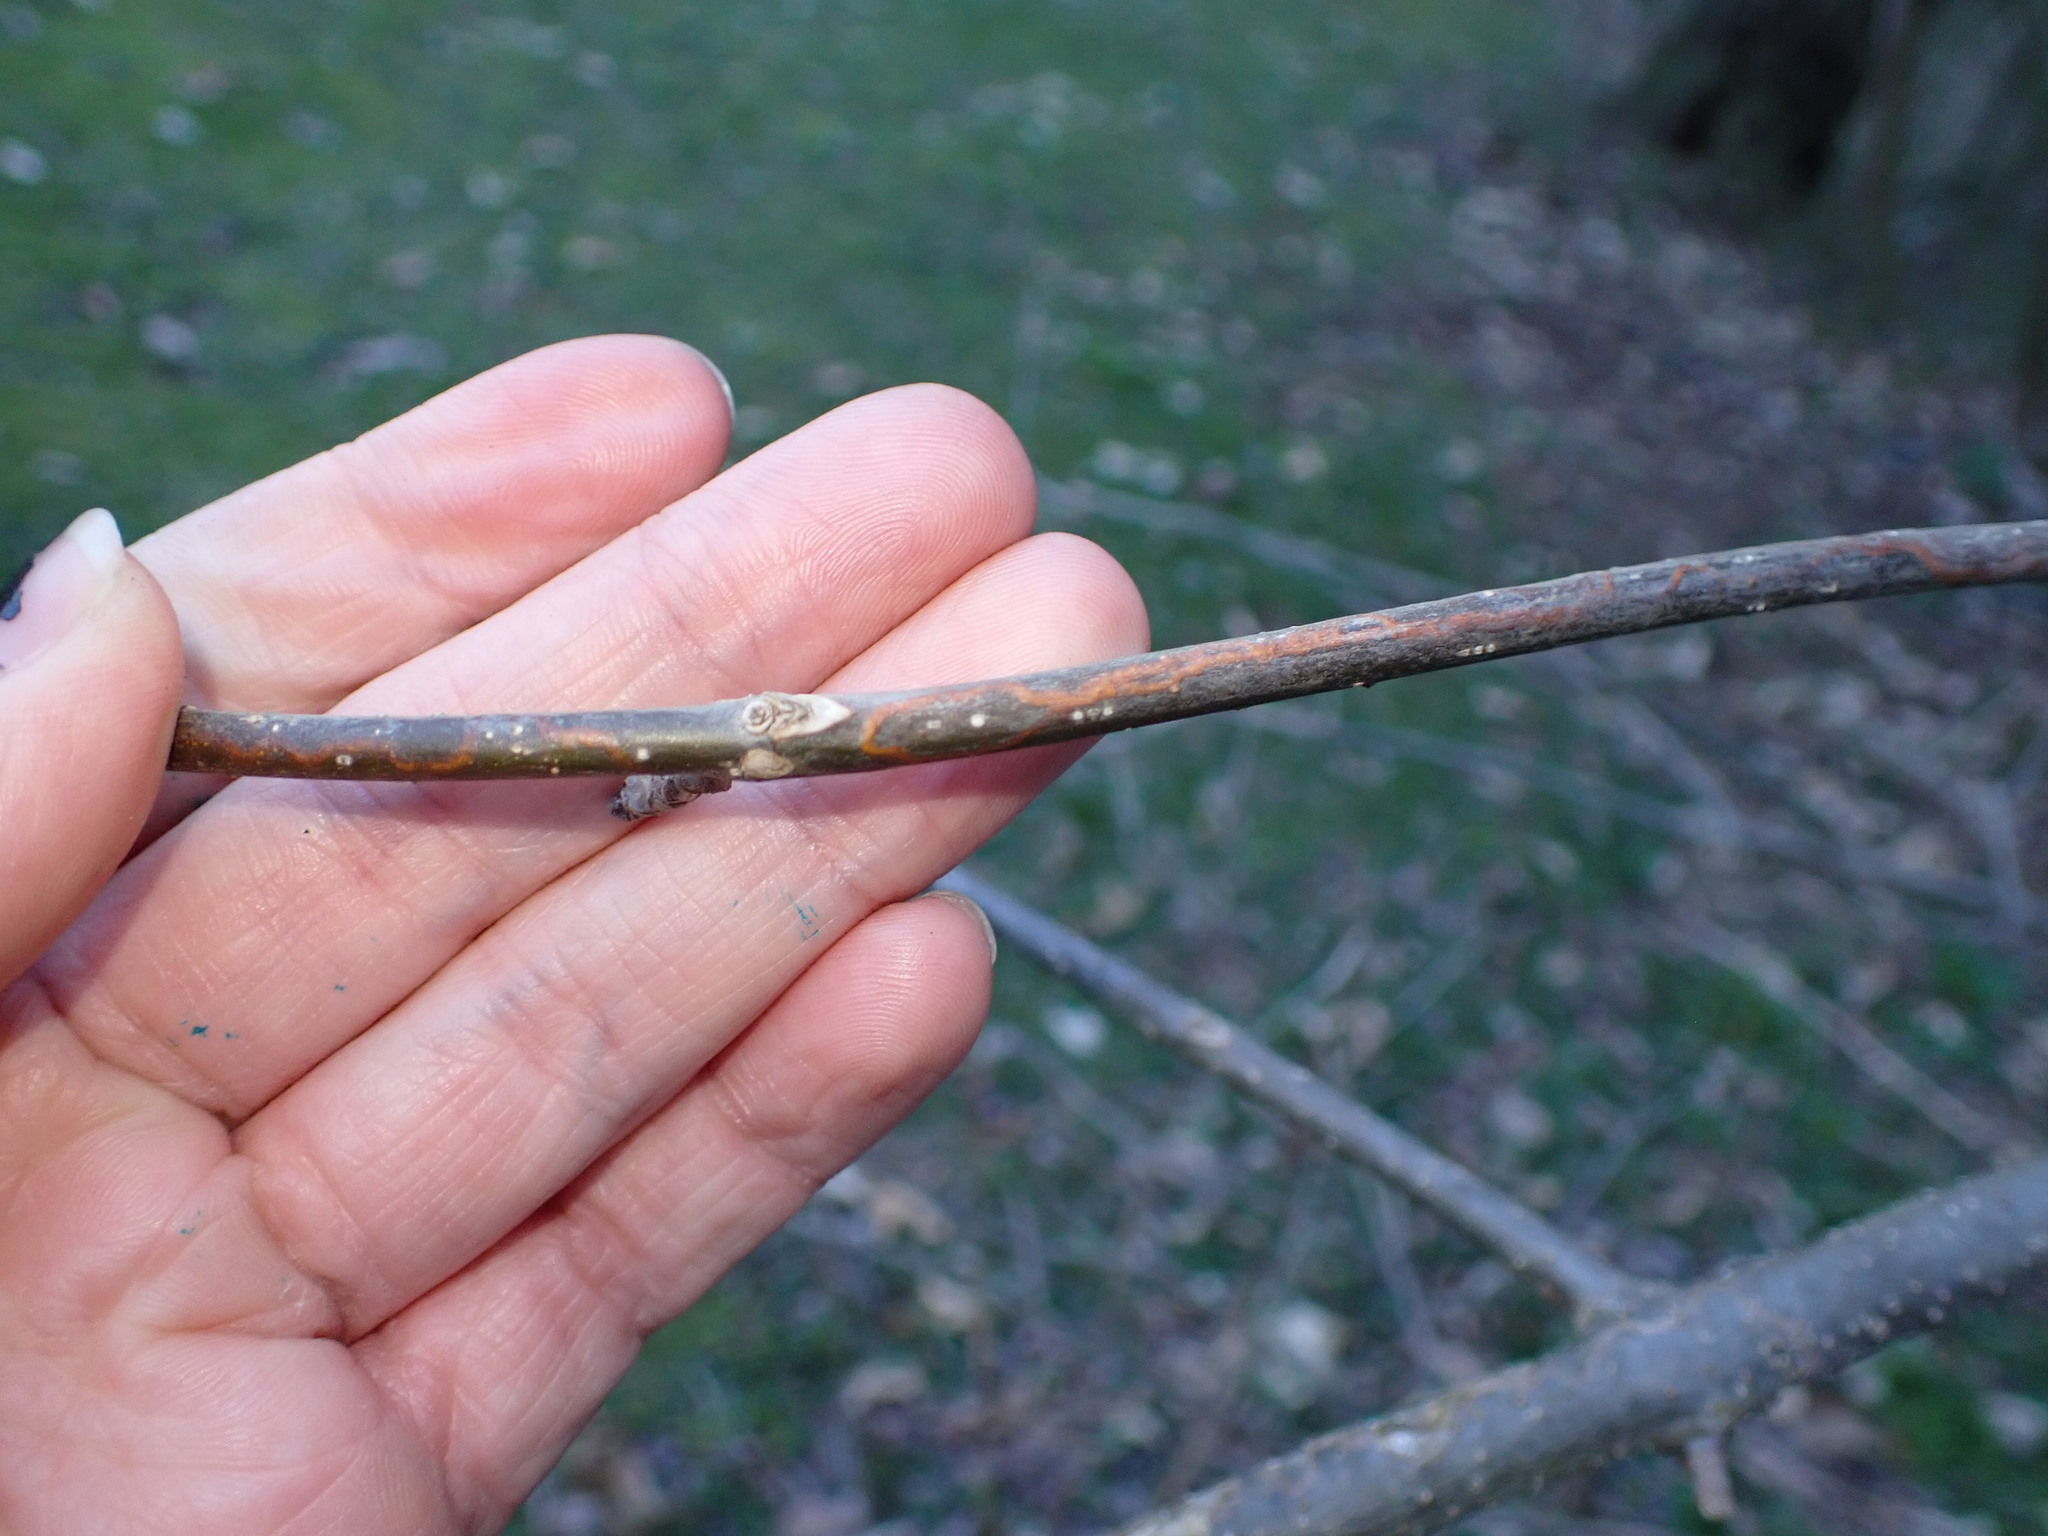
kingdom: Animalia
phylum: Arthropoda
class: Insecta
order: Lepidoptera
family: Gracillariidae
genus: Marmara
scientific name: Marmara fraxinicola
